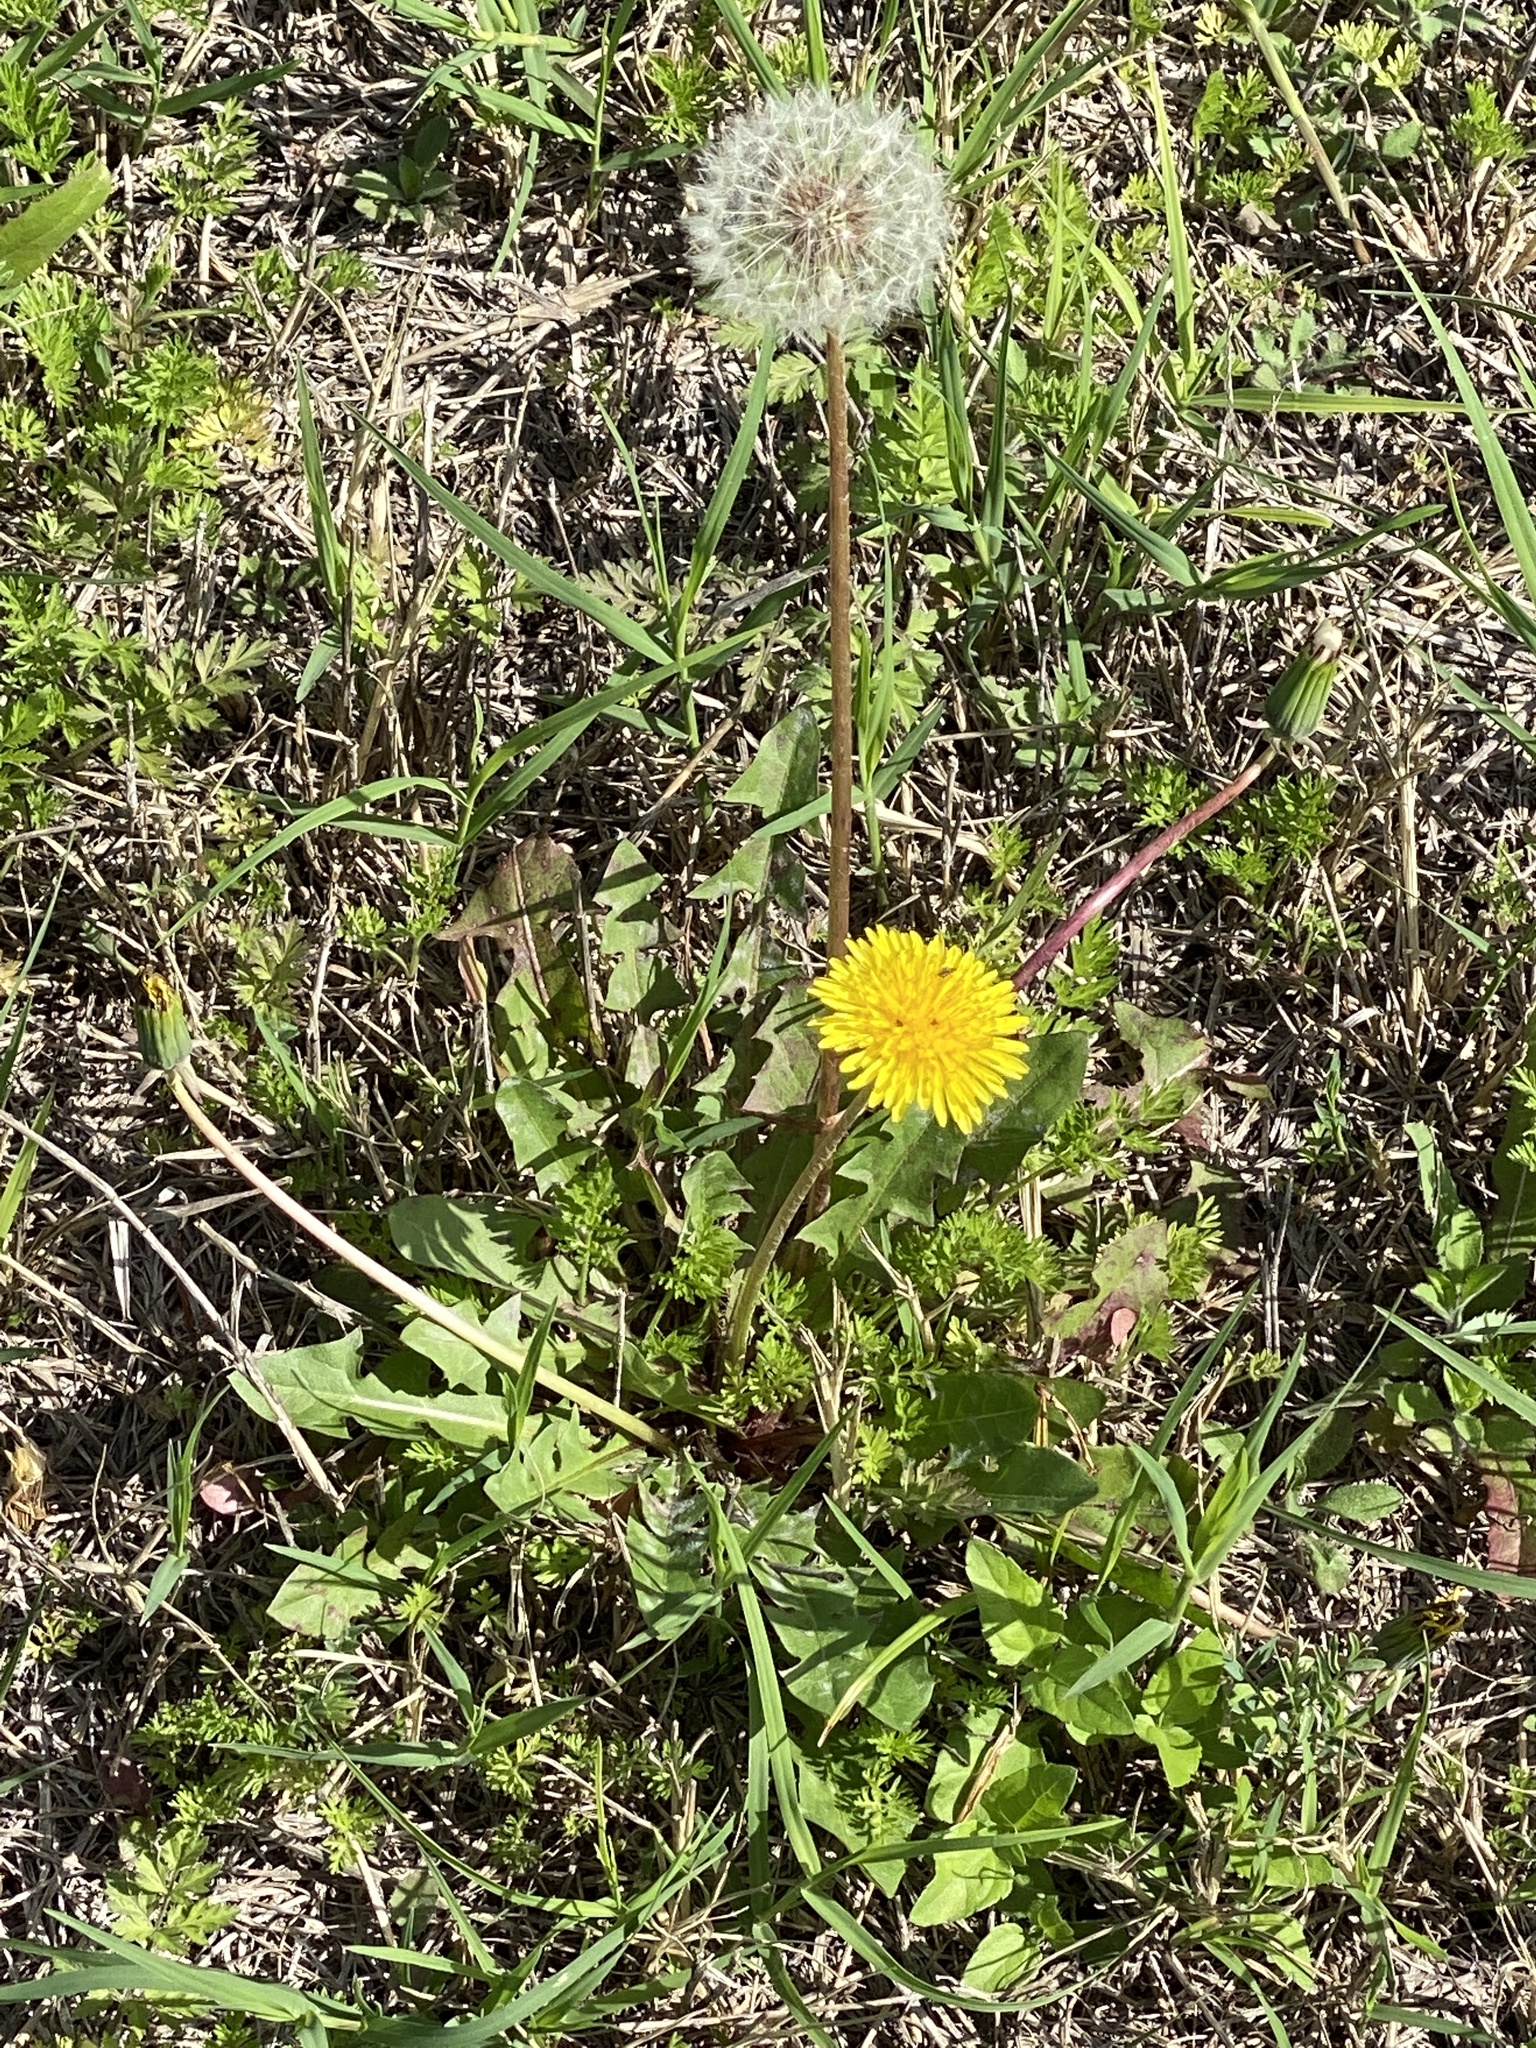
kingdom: Plantae
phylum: Tracheophyta
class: Magnoliopsida
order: Asterales
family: Asteraceae
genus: Taraxacum
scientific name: Taraxacum officinale
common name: Common dandelion
